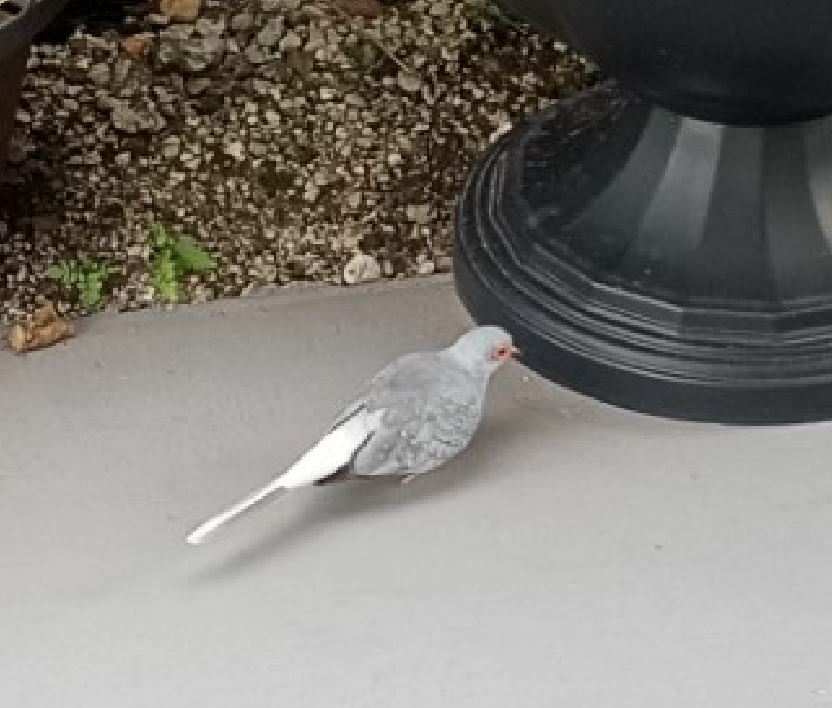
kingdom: Animalia
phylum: Chordata
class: Aves
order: Columbiformes
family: Columbidae
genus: Geopelia
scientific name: Geopelia cuneata
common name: Diamond dove
